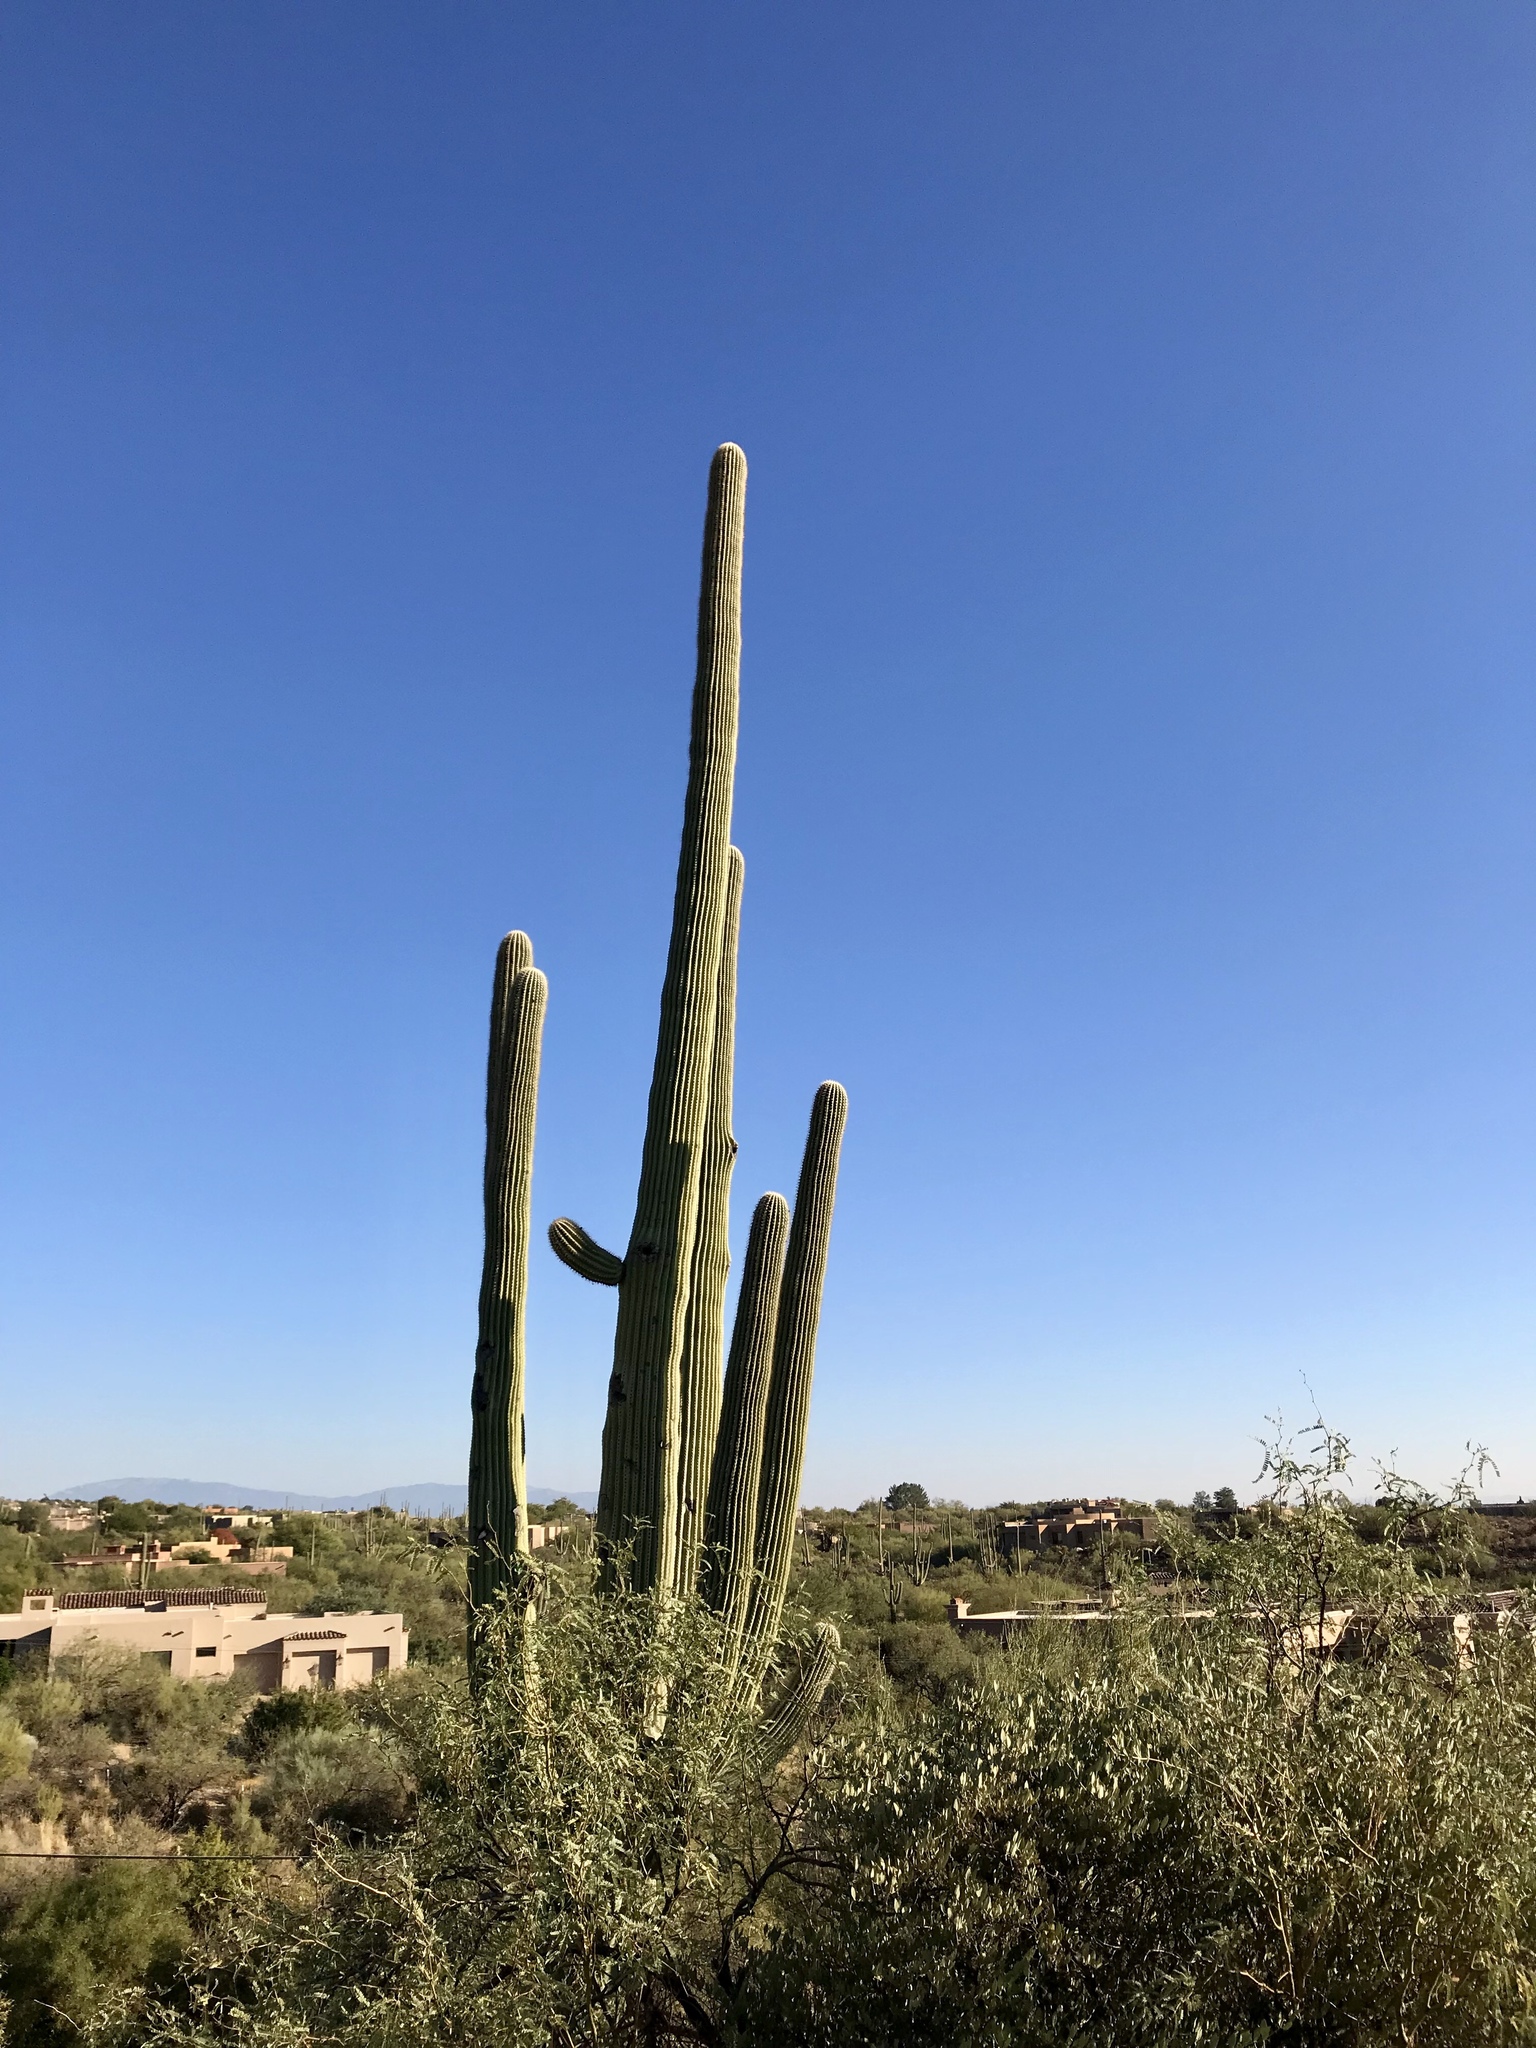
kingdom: Plantae
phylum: Tracheophyta
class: Magnoliopsida
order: Caryophyllales
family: Cactaceae
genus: Carnegiea
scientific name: Carnegiea gigantea
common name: Saguaro
